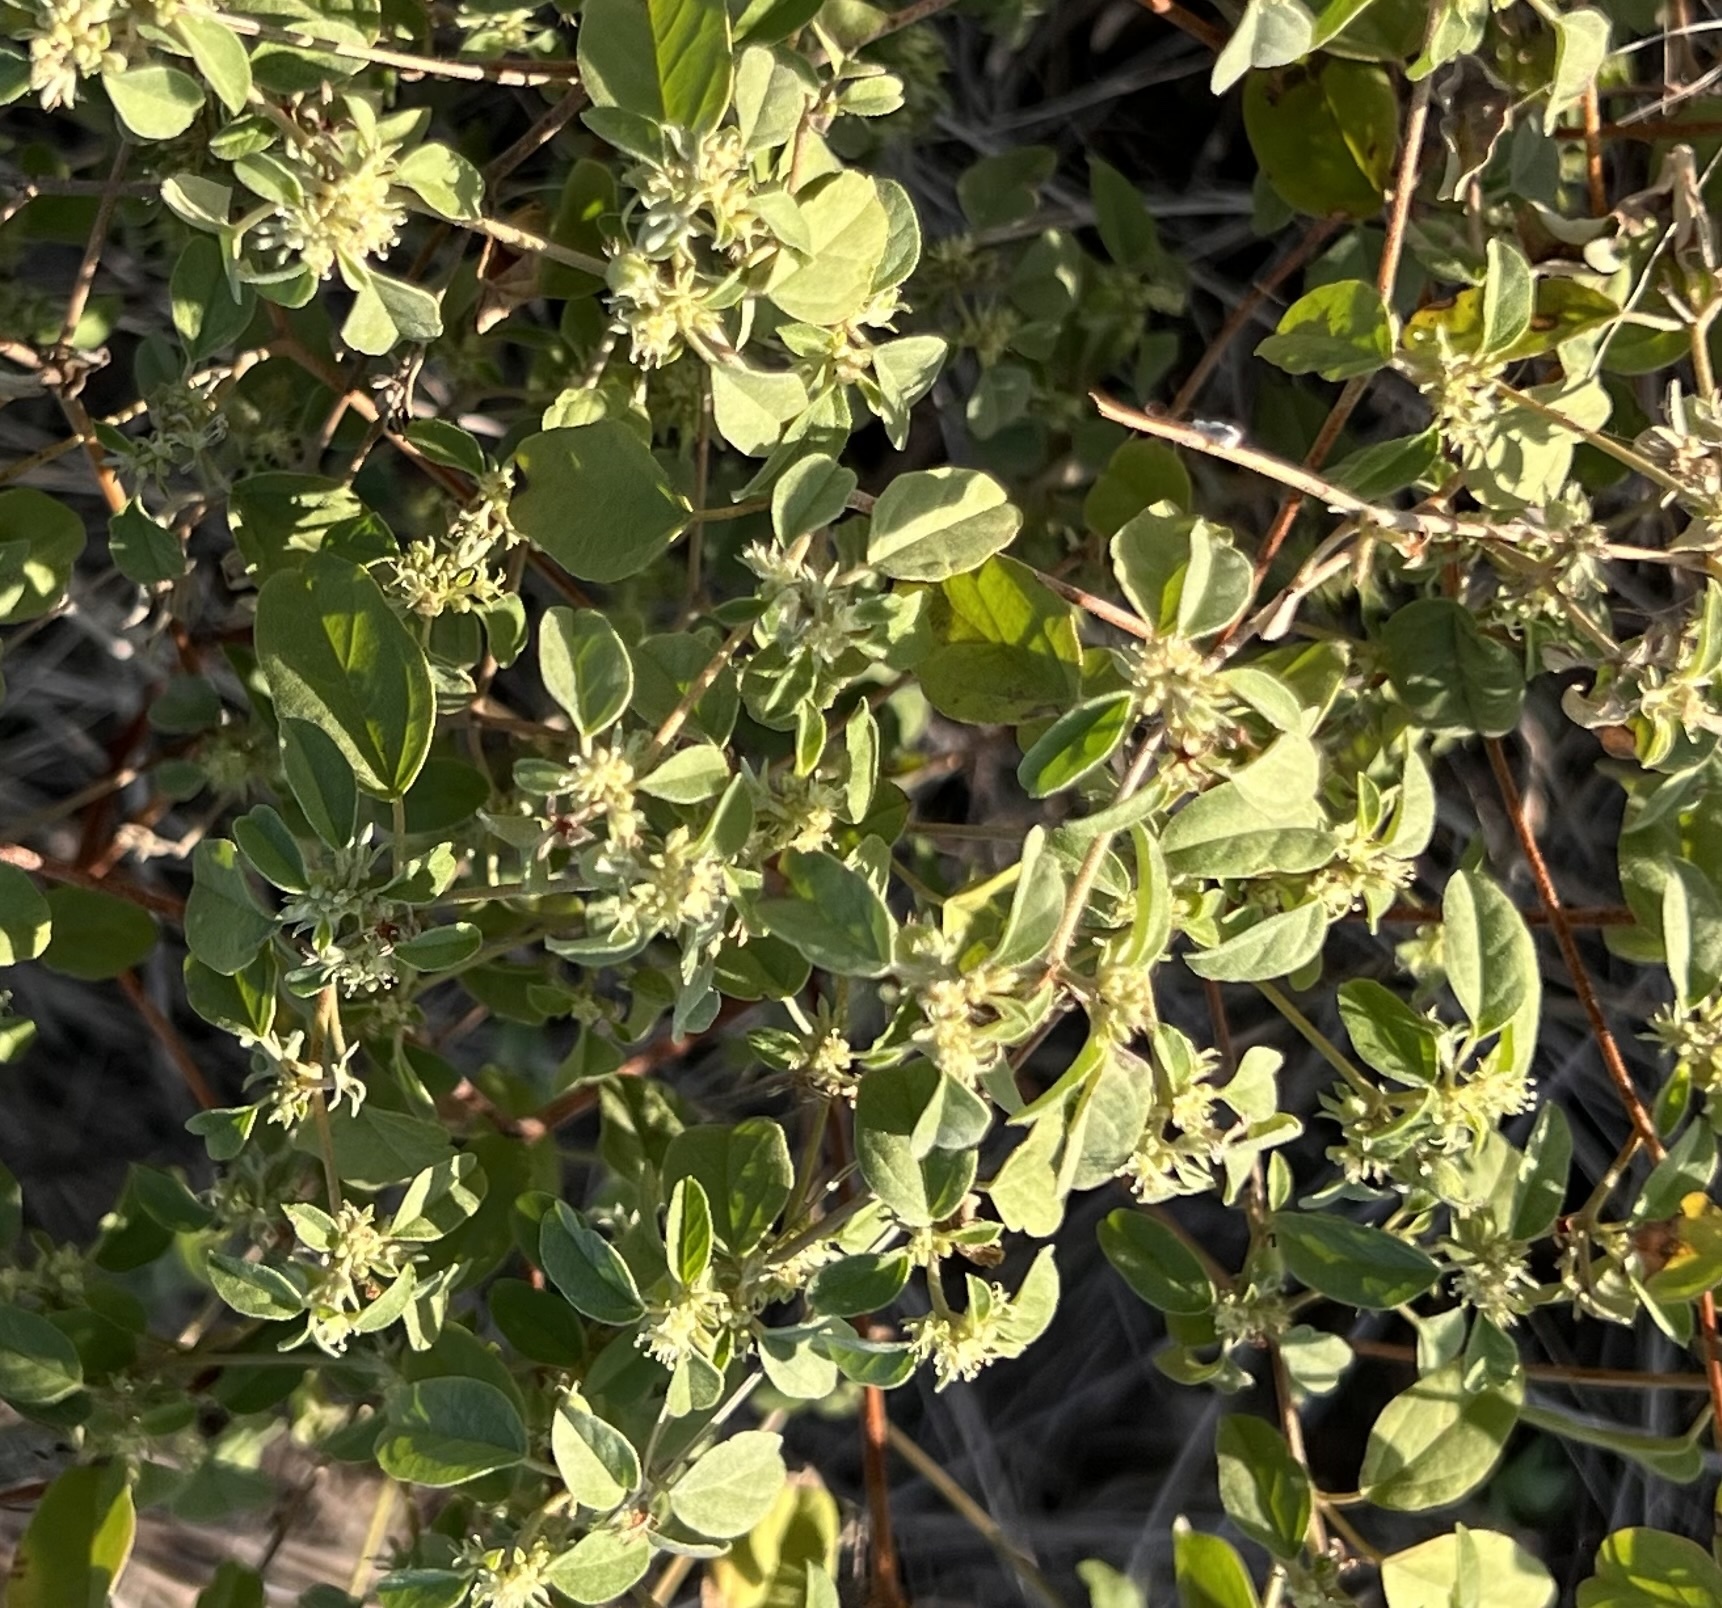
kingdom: Plantae
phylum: Tracheophyta
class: Magnoliopsida
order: Malpighiales
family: Euphorbiaceae
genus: Croton
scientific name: Croton monanthogynus
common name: One-seed croton
